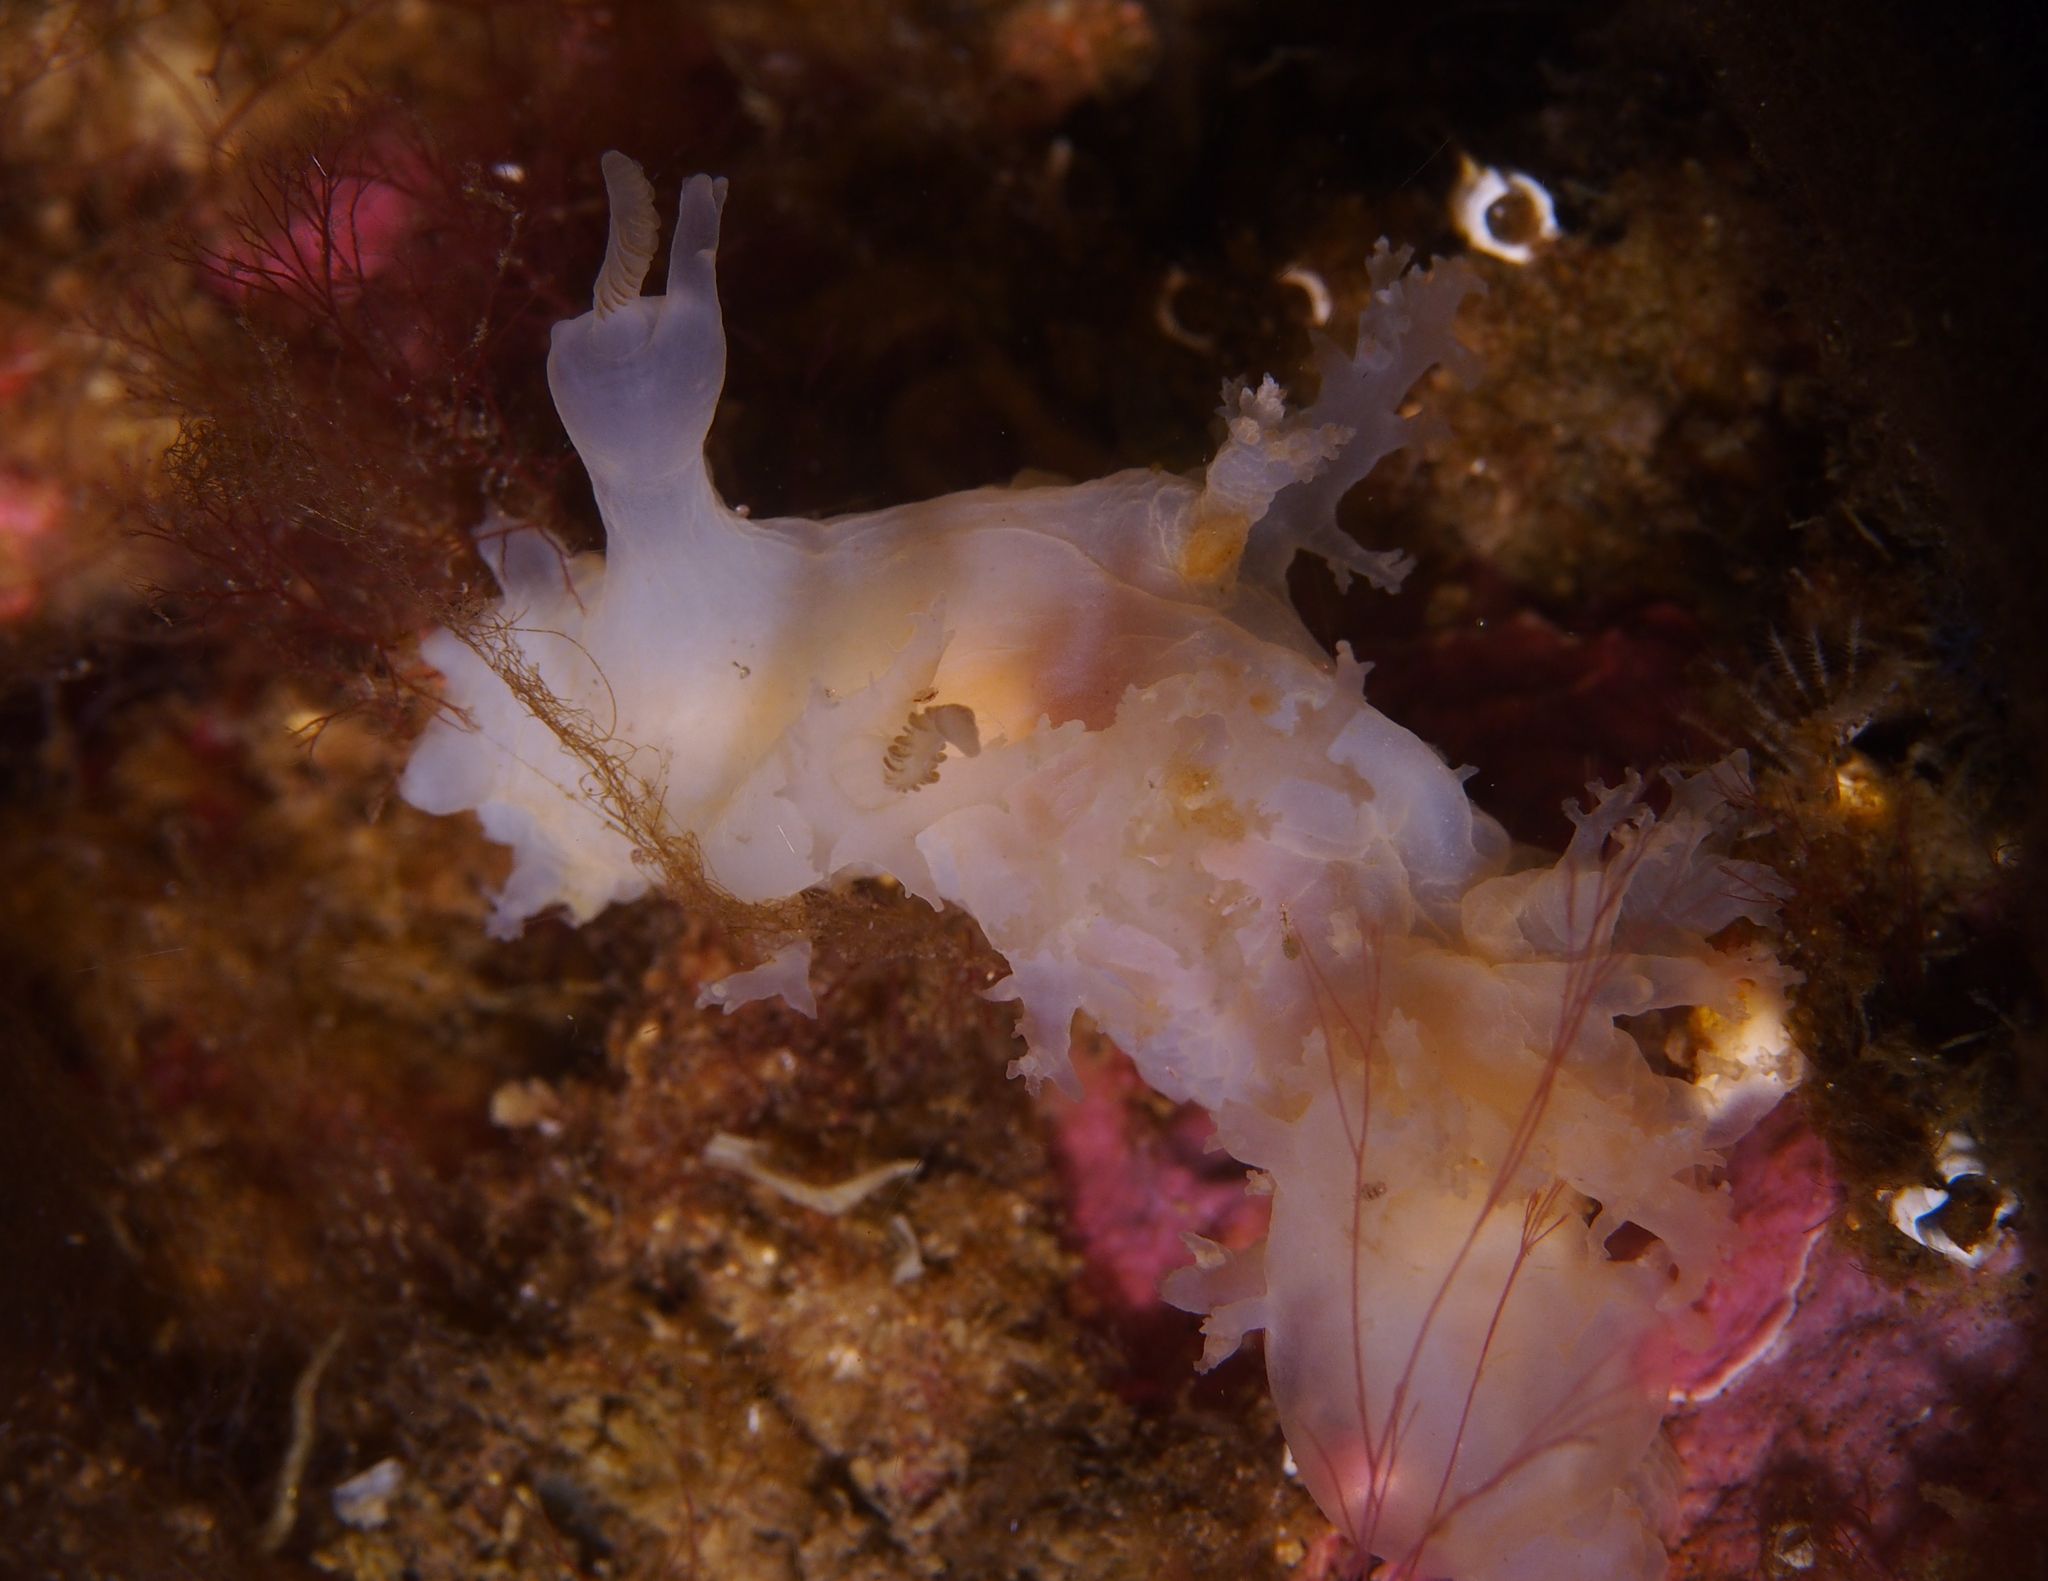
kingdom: Animalia
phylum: Mollusca
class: Gastropoda
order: Nudibranchia
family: Dendronotidae
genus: Dendronotus
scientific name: Dendronotus lacteus
